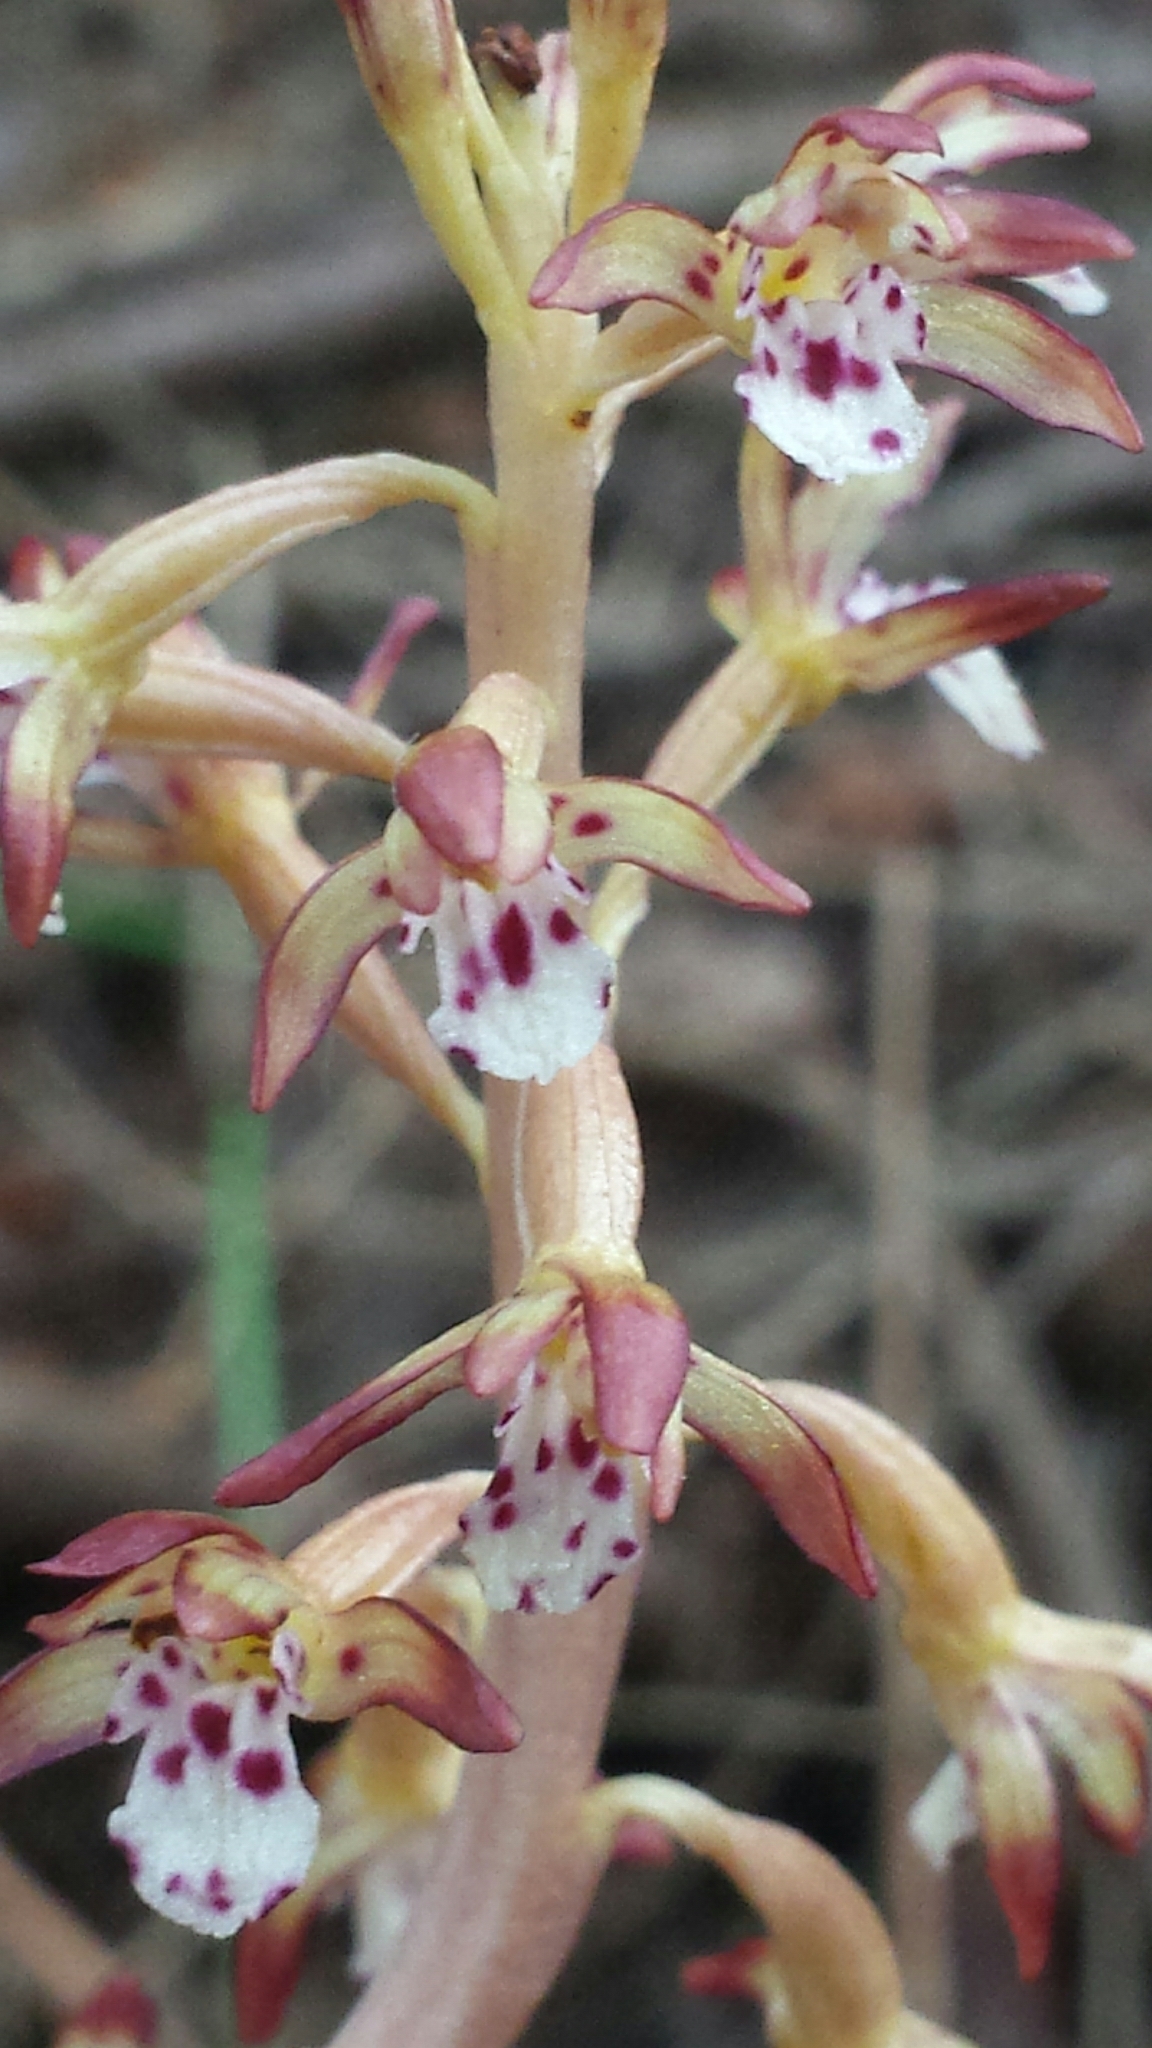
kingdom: Plantae
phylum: Tracheophyta
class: Liliopsida
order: Asparagales
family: Orchidaceae
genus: Corallorhiza
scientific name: Corallorhiza maculata
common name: Spotted coralroot
